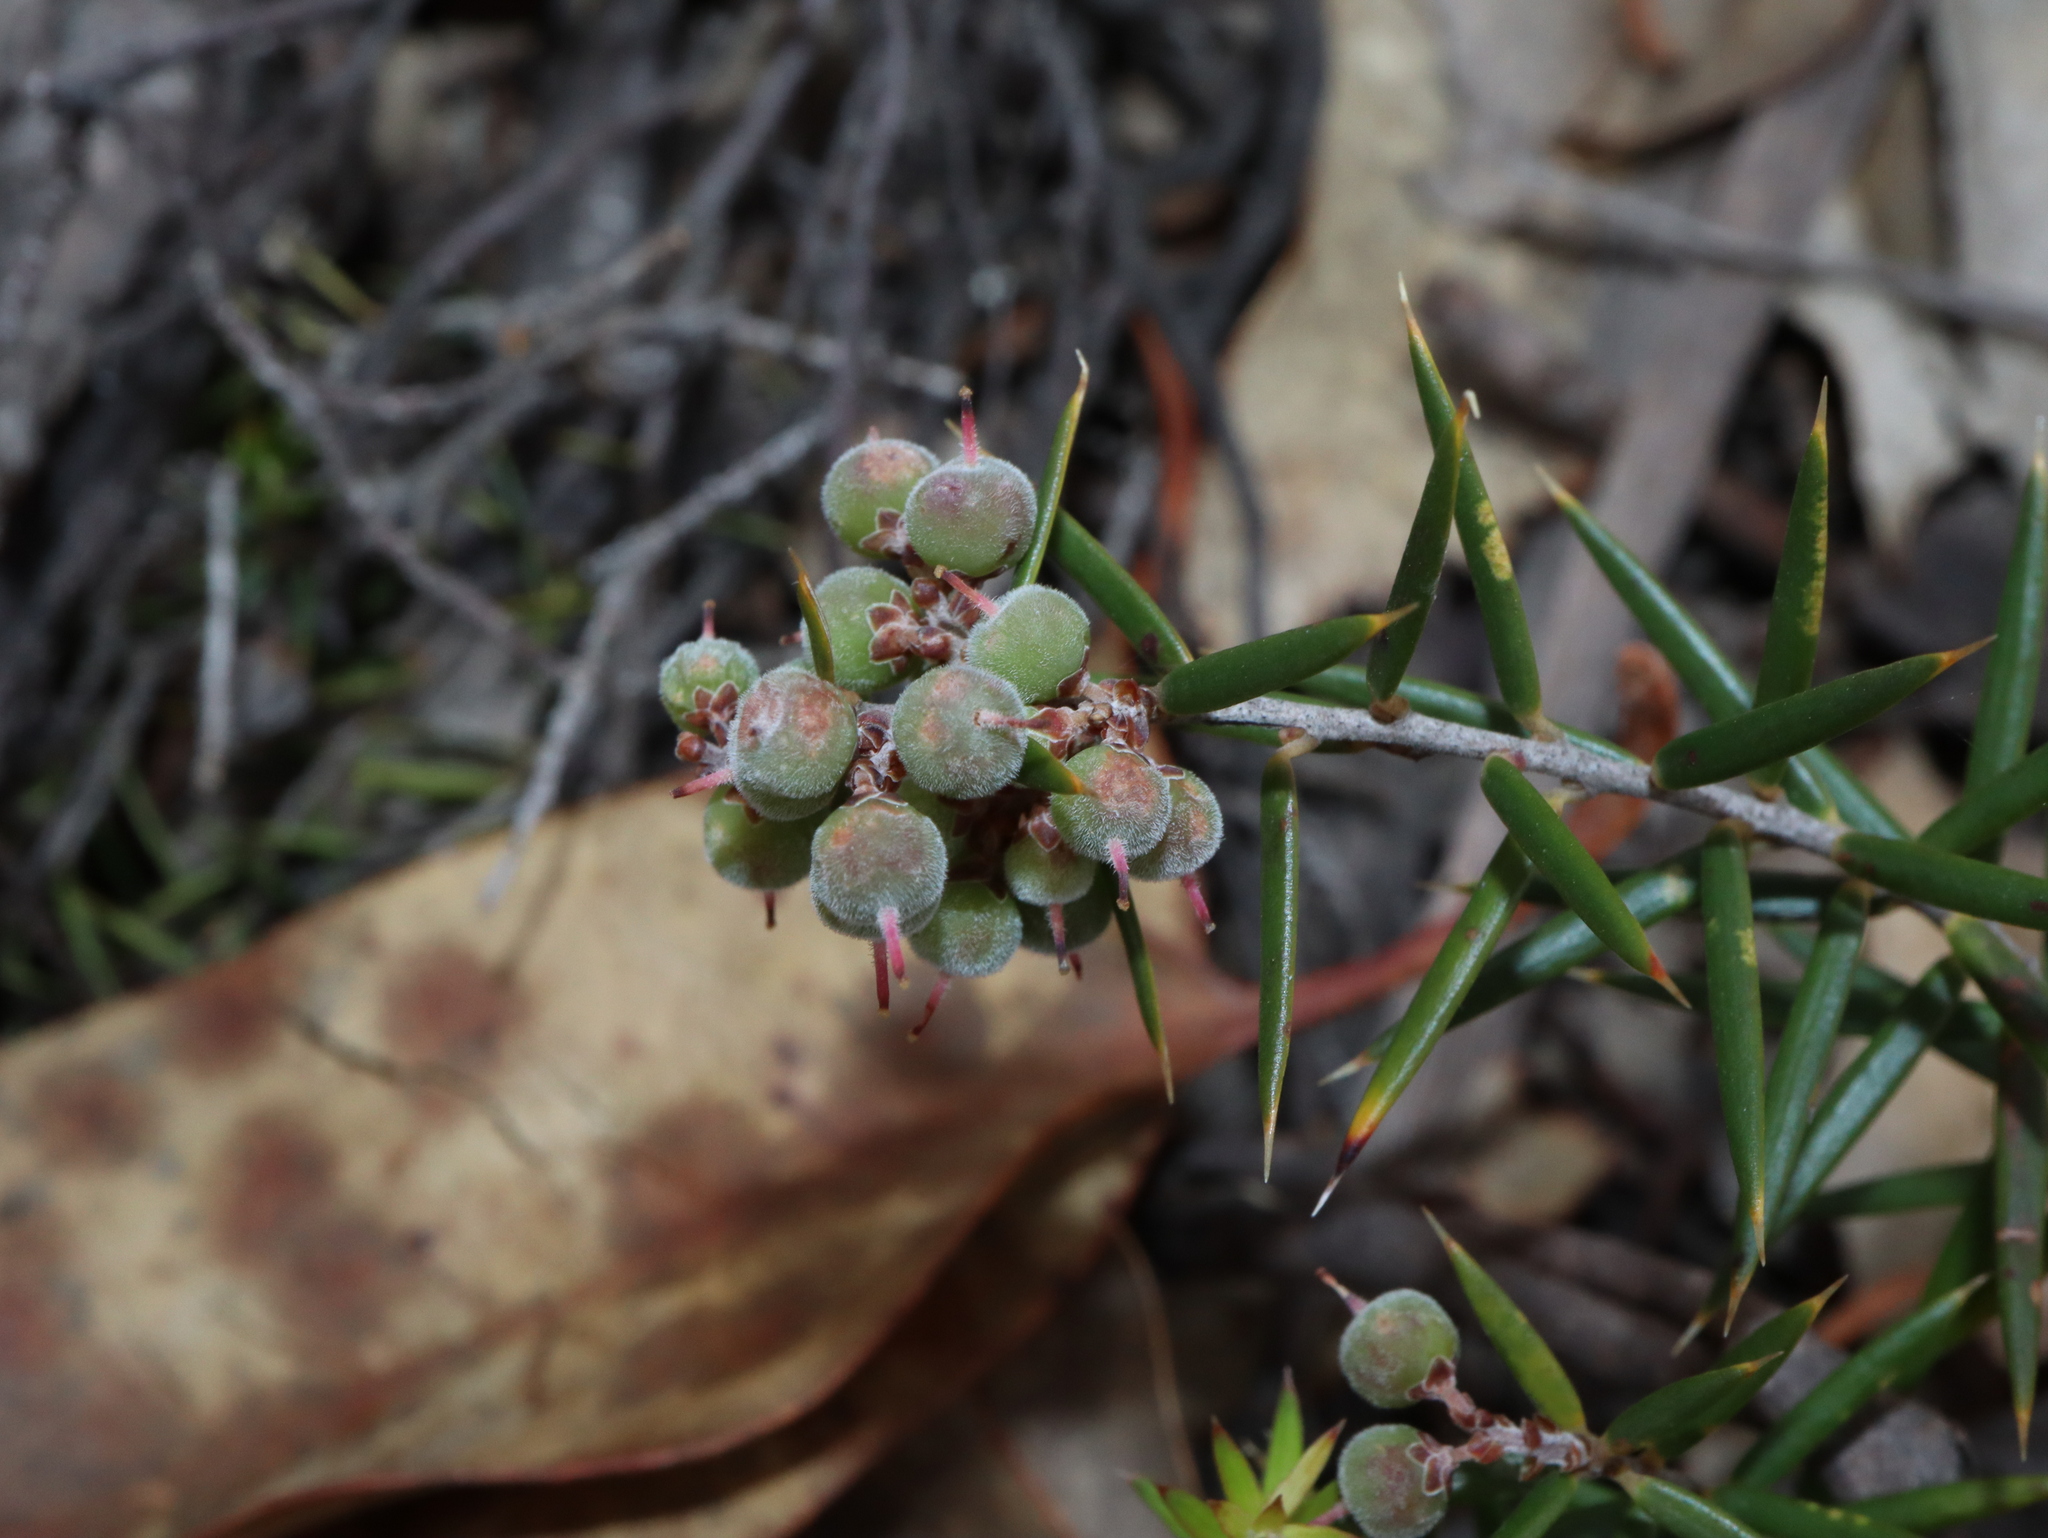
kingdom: Plantae
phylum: Tracheophyta
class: Magnoliopsida
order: Ericales
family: Ericaceae
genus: Lissanthe
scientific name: Lissanthe strigosa
